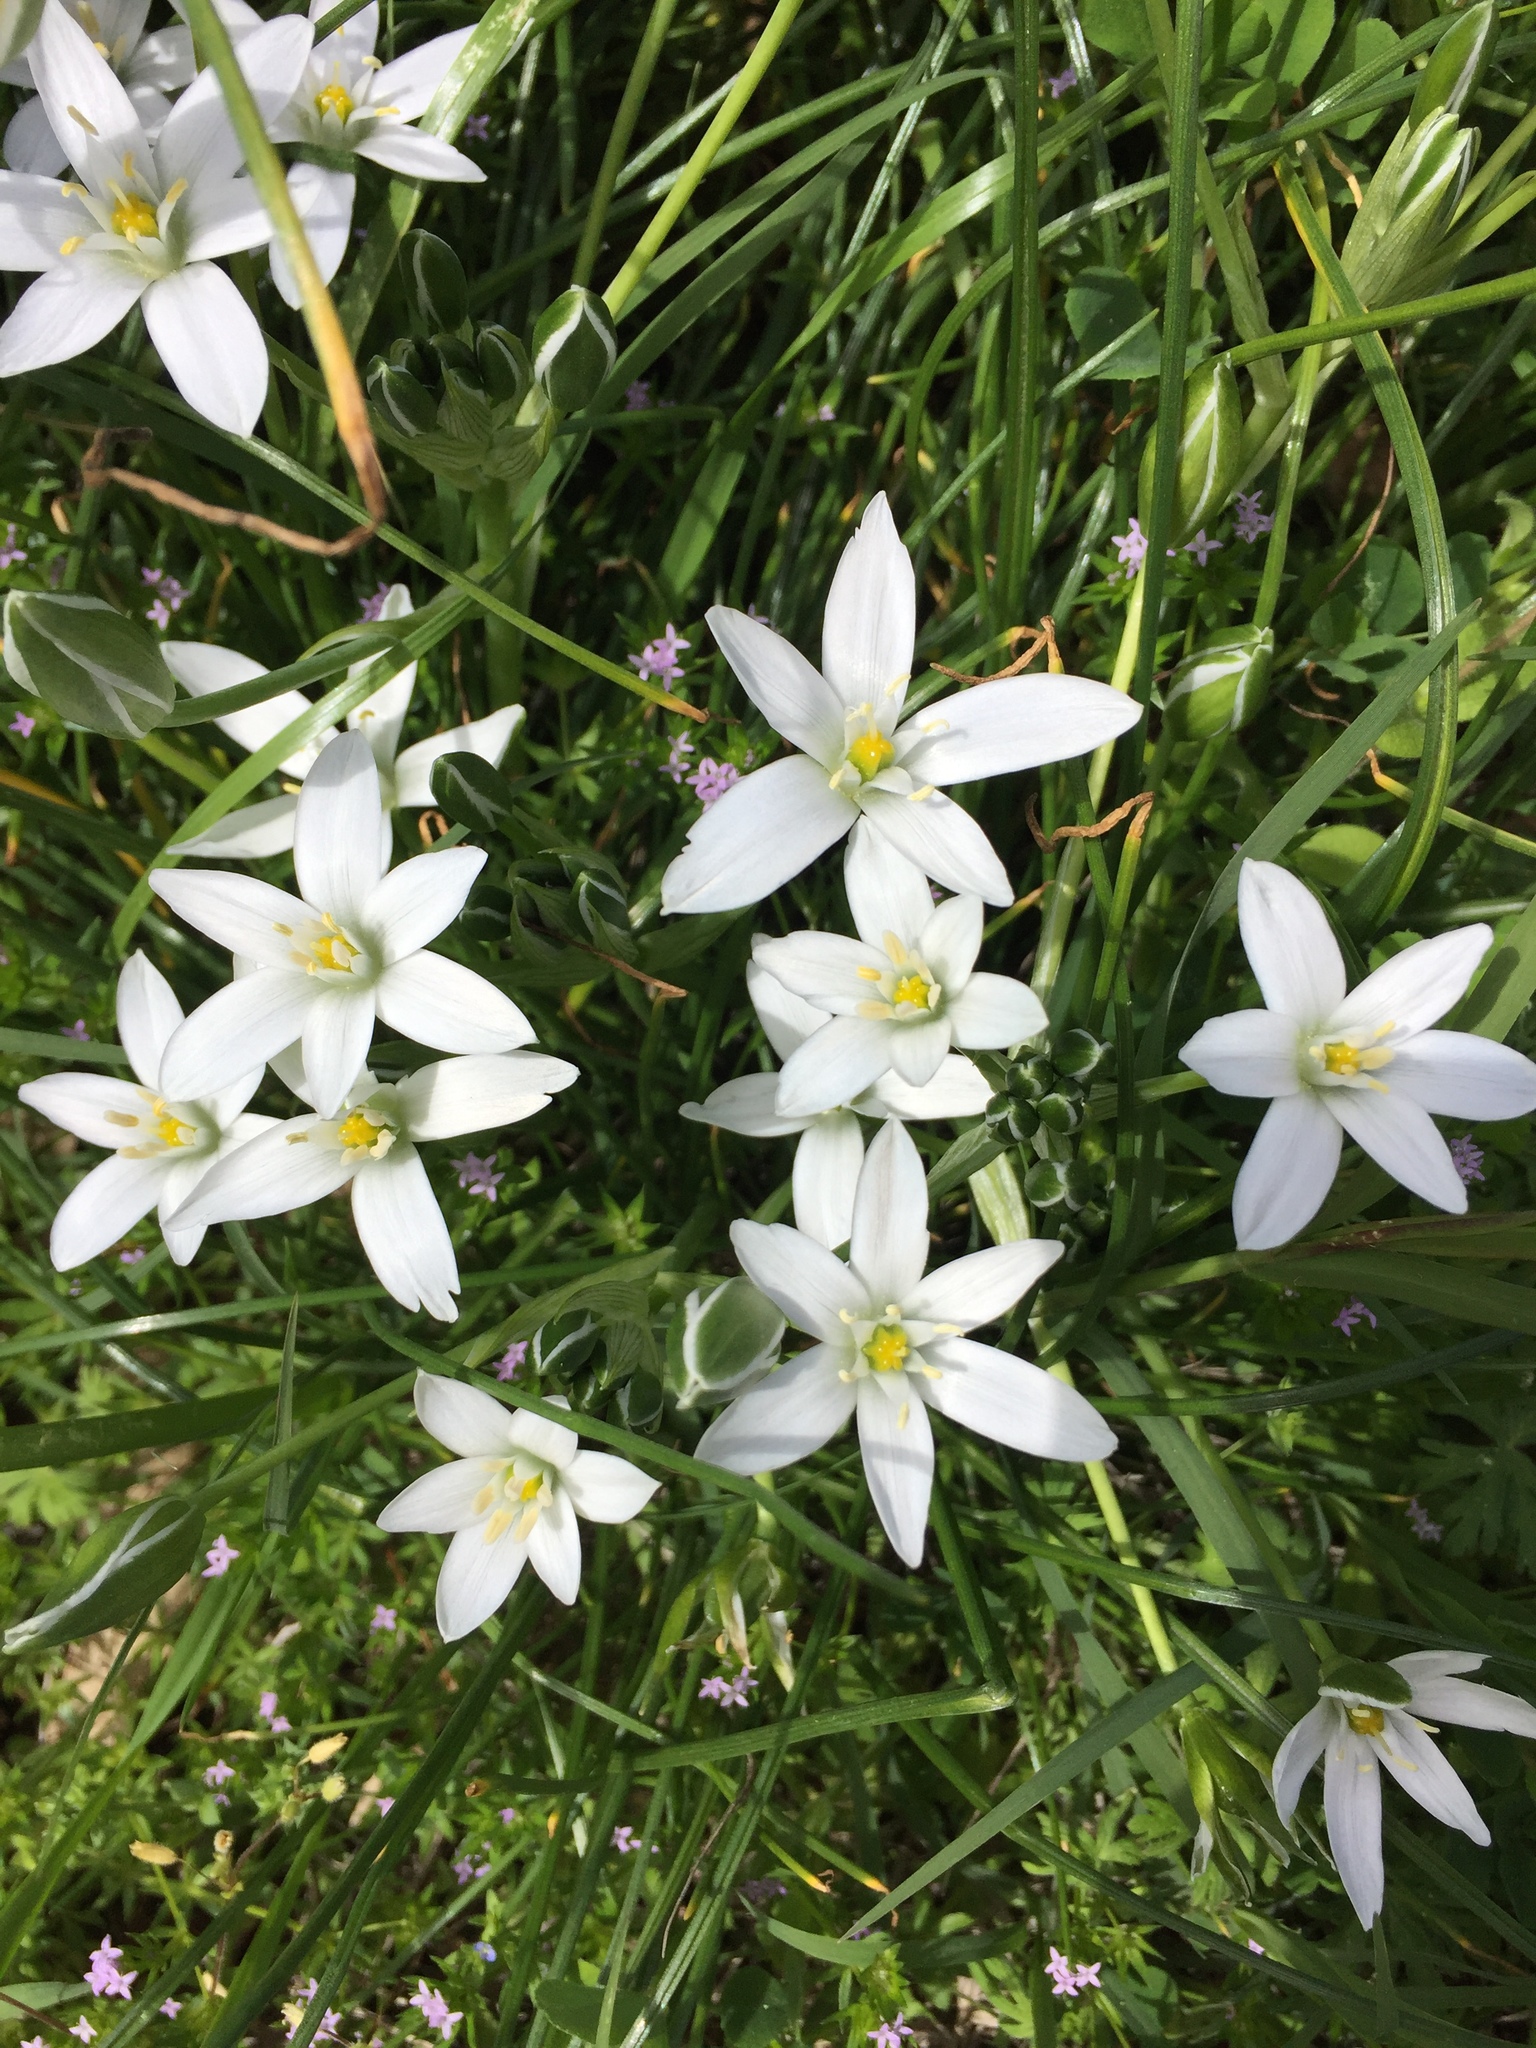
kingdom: Plantae
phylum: Tracheophyta
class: Liliopsida
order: Asparagales
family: Asparagaceae
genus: Ornithogalum
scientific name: Ornithogalum umbellatum
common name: Garden star-of-bethlehem
